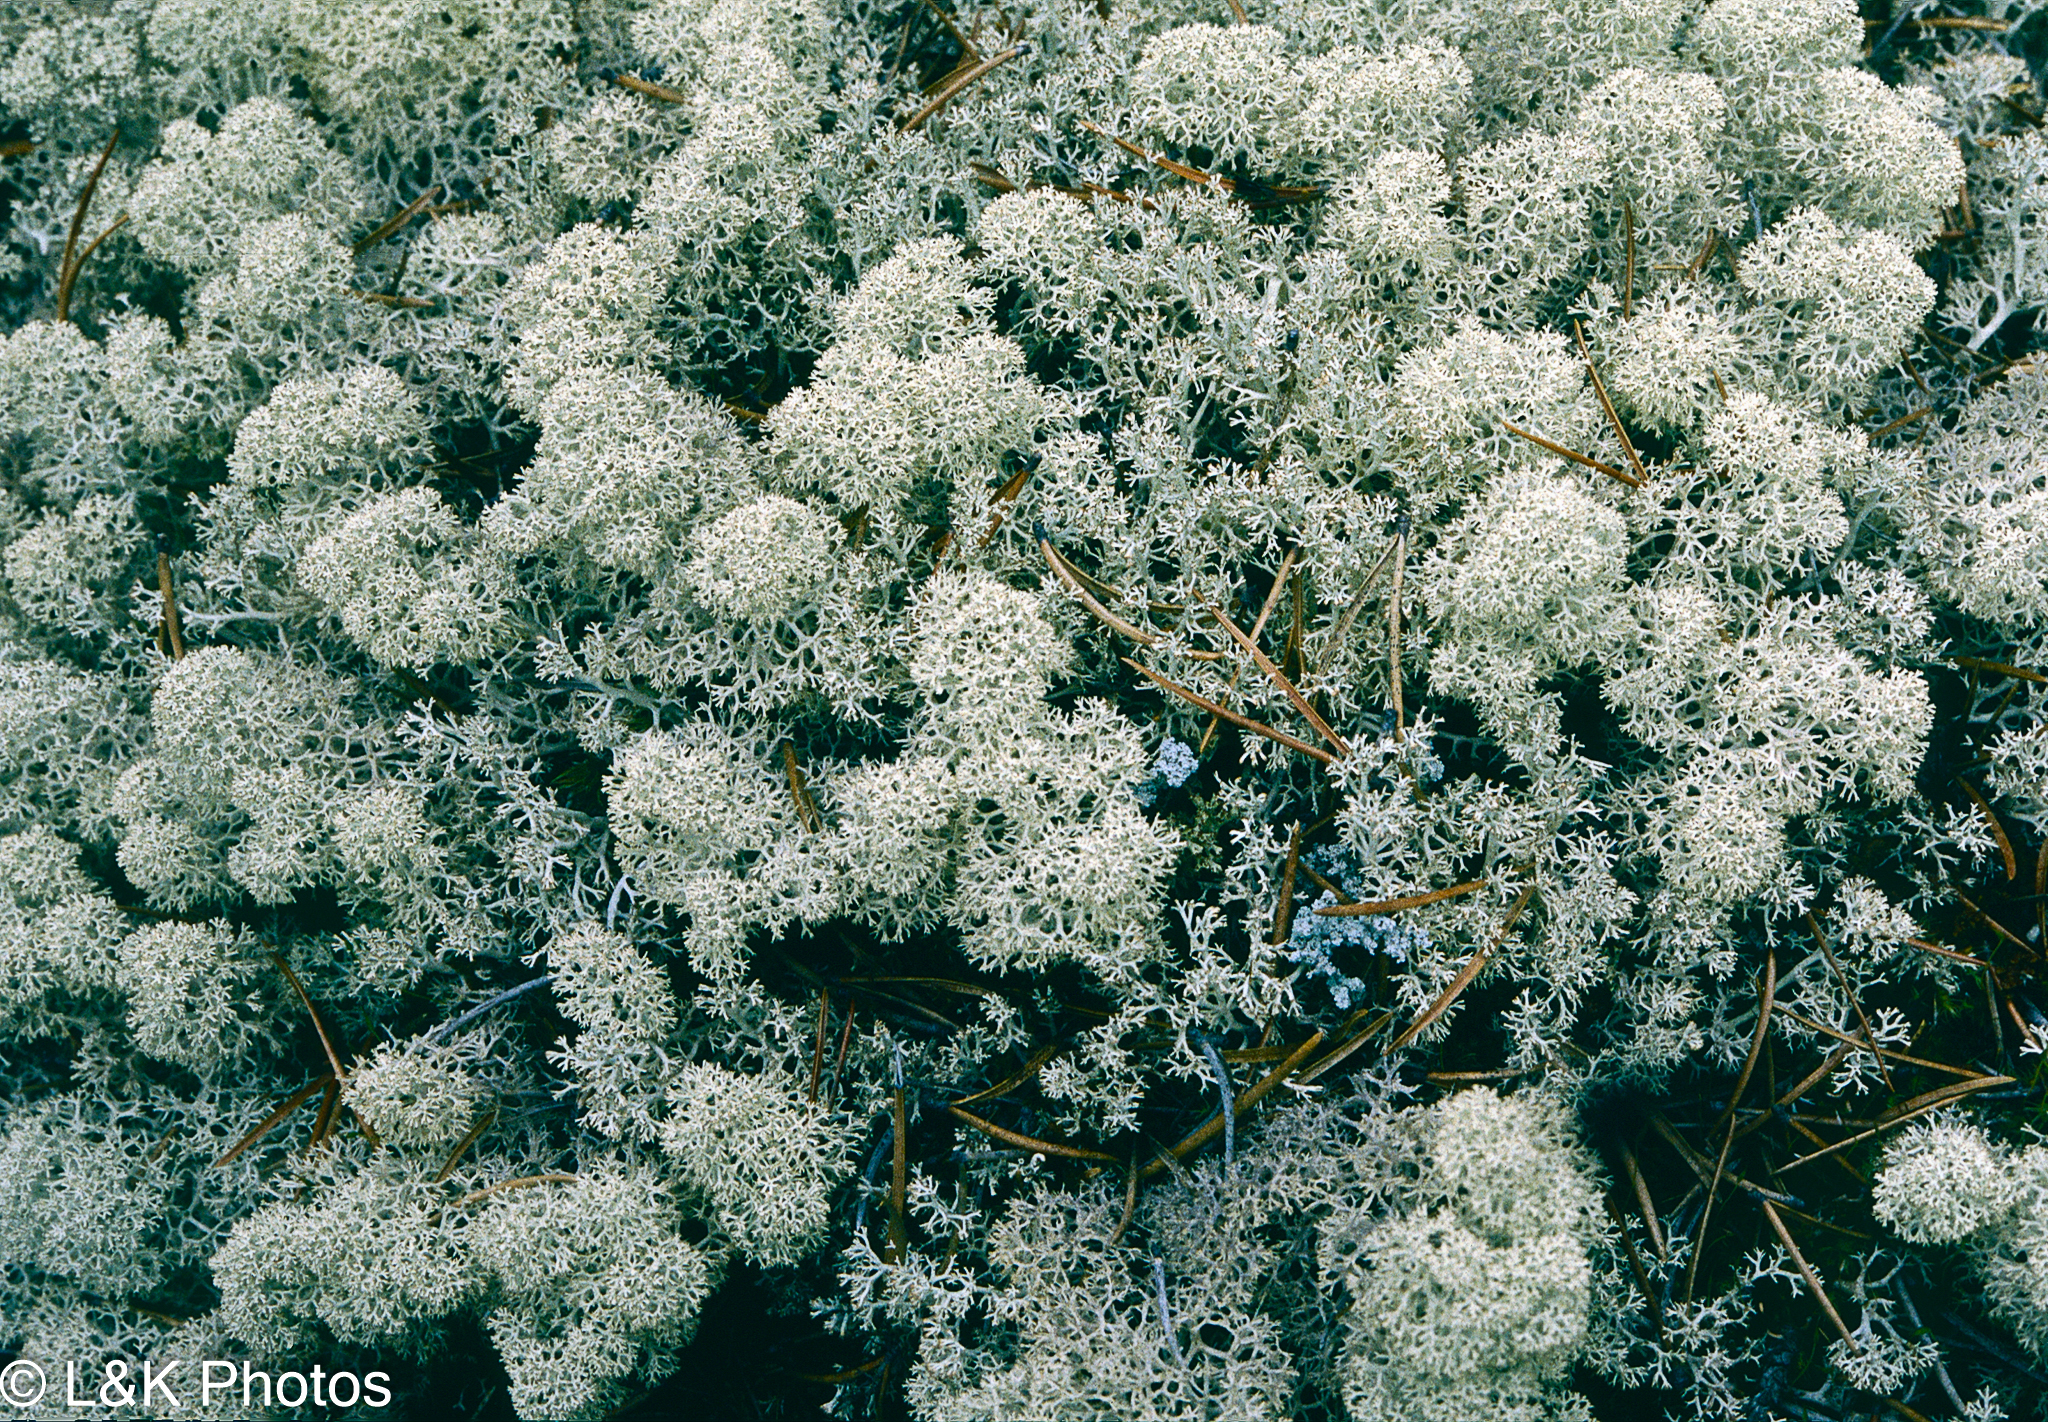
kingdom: Fungi
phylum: Ascomycota
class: Lecanoromycetes
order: Lecanorales
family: Cladoniaceae
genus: Cladonia
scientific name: Cladonia stellaris
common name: Star-tipped reindeer lichen
